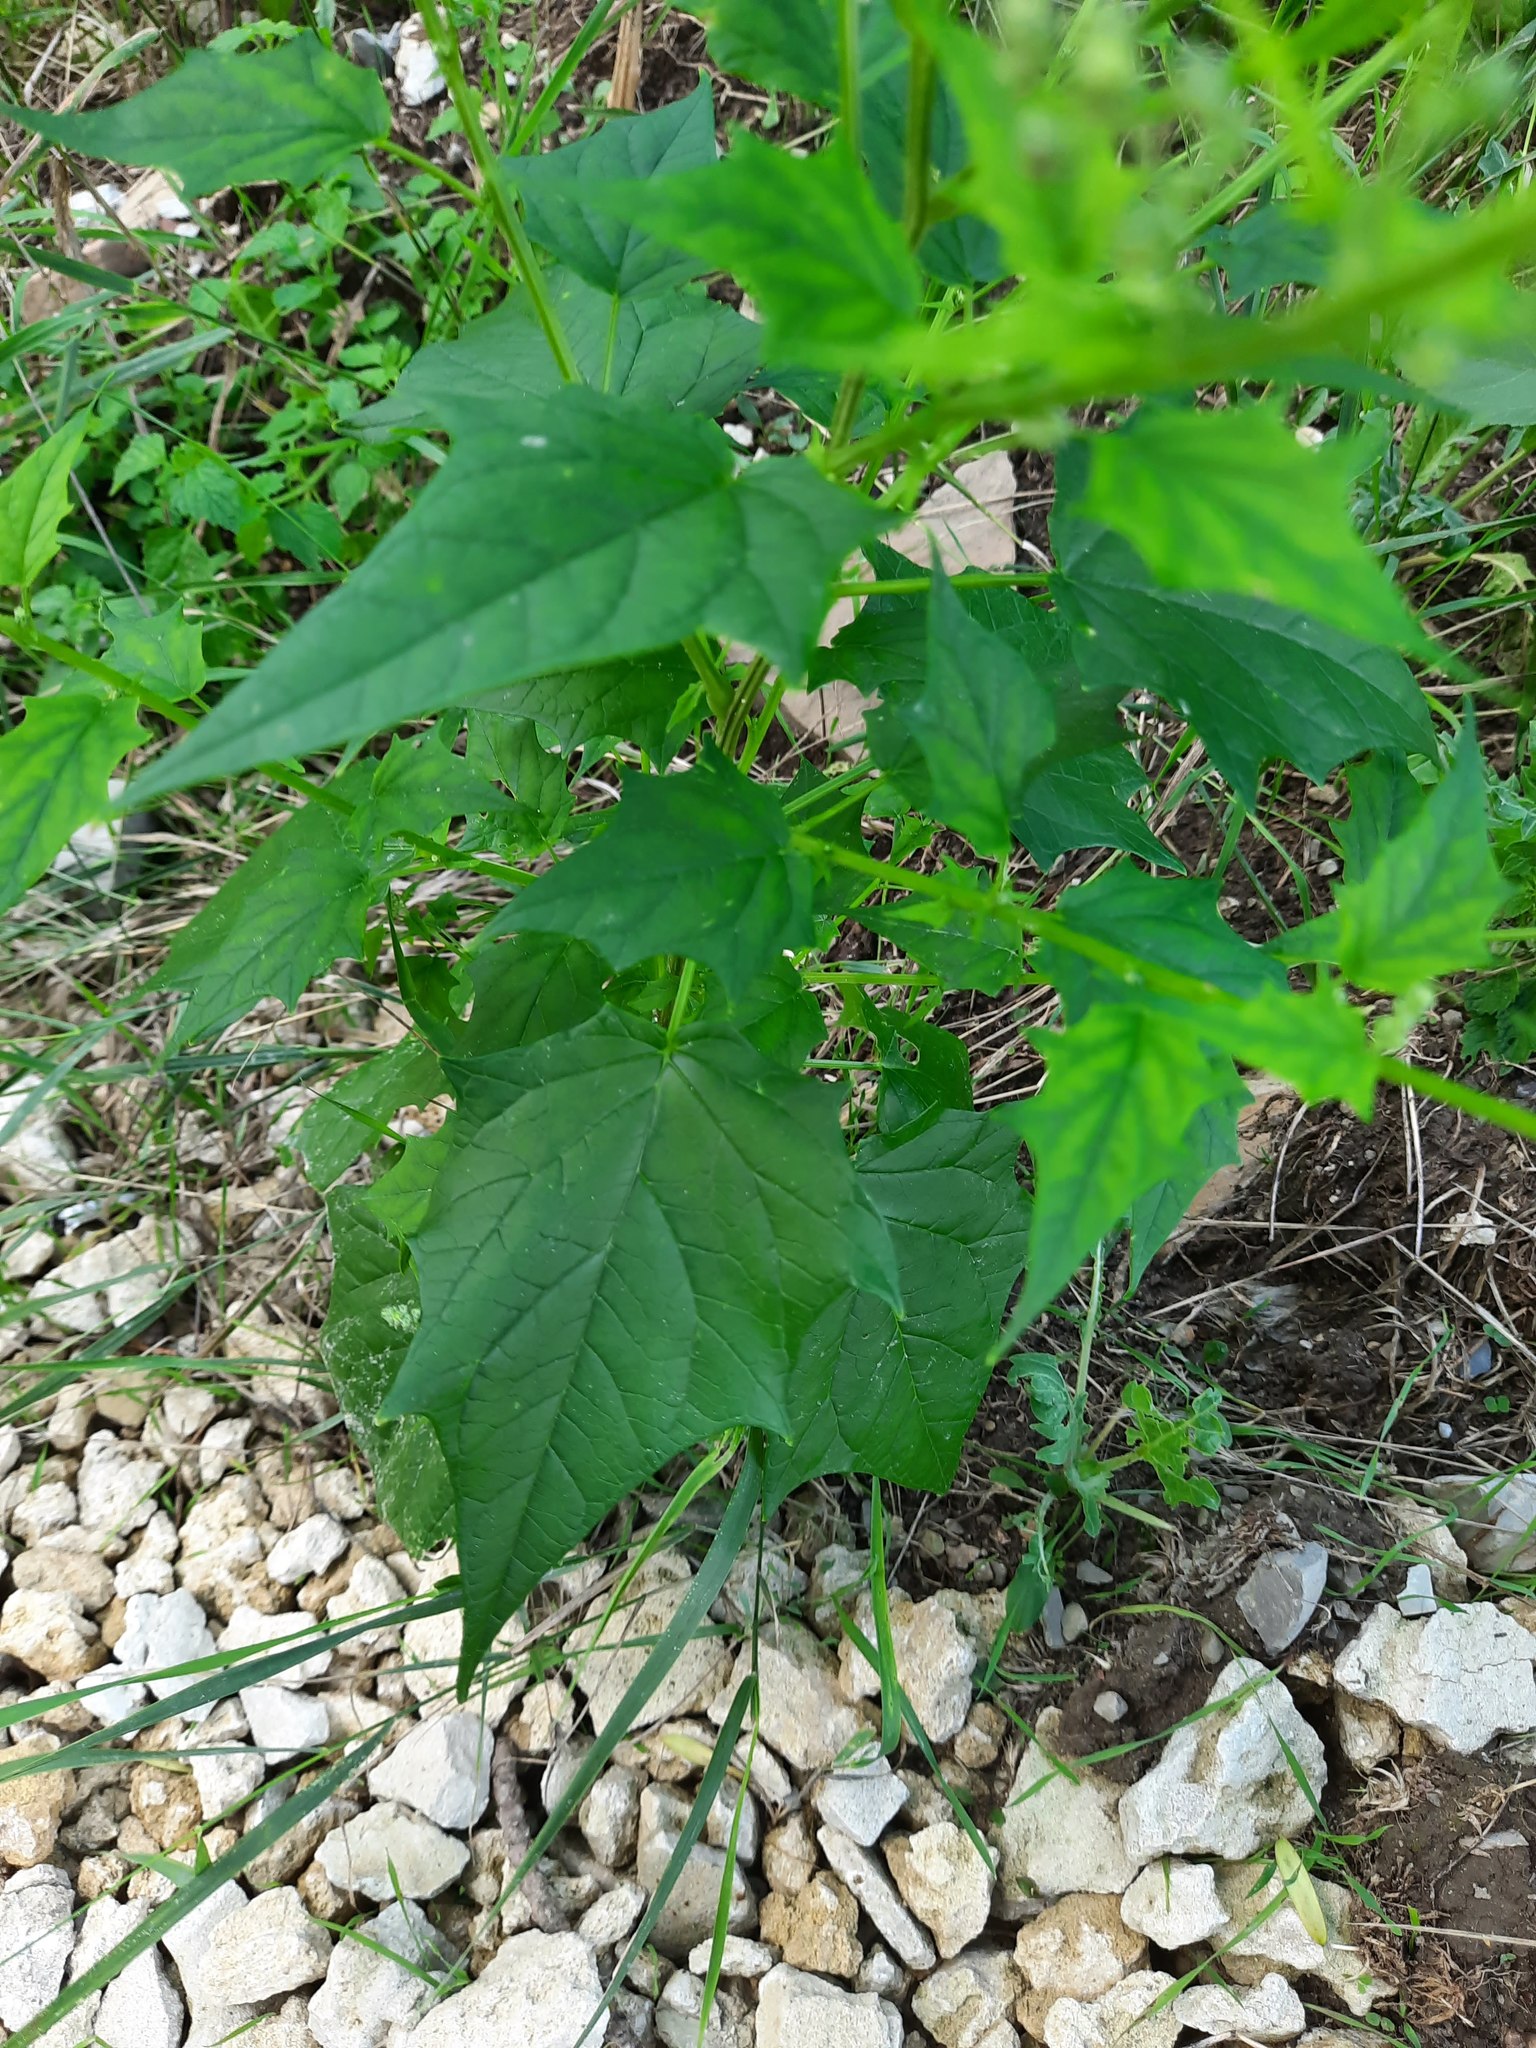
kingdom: Plantae
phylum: Tracheophyta
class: Magnoliopsida
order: Caryophyllales
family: Amaranthaceae
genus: Chenopodiastrum
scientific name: Chenopodiastrum hybridum
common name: Mapleleaf goosefoot
